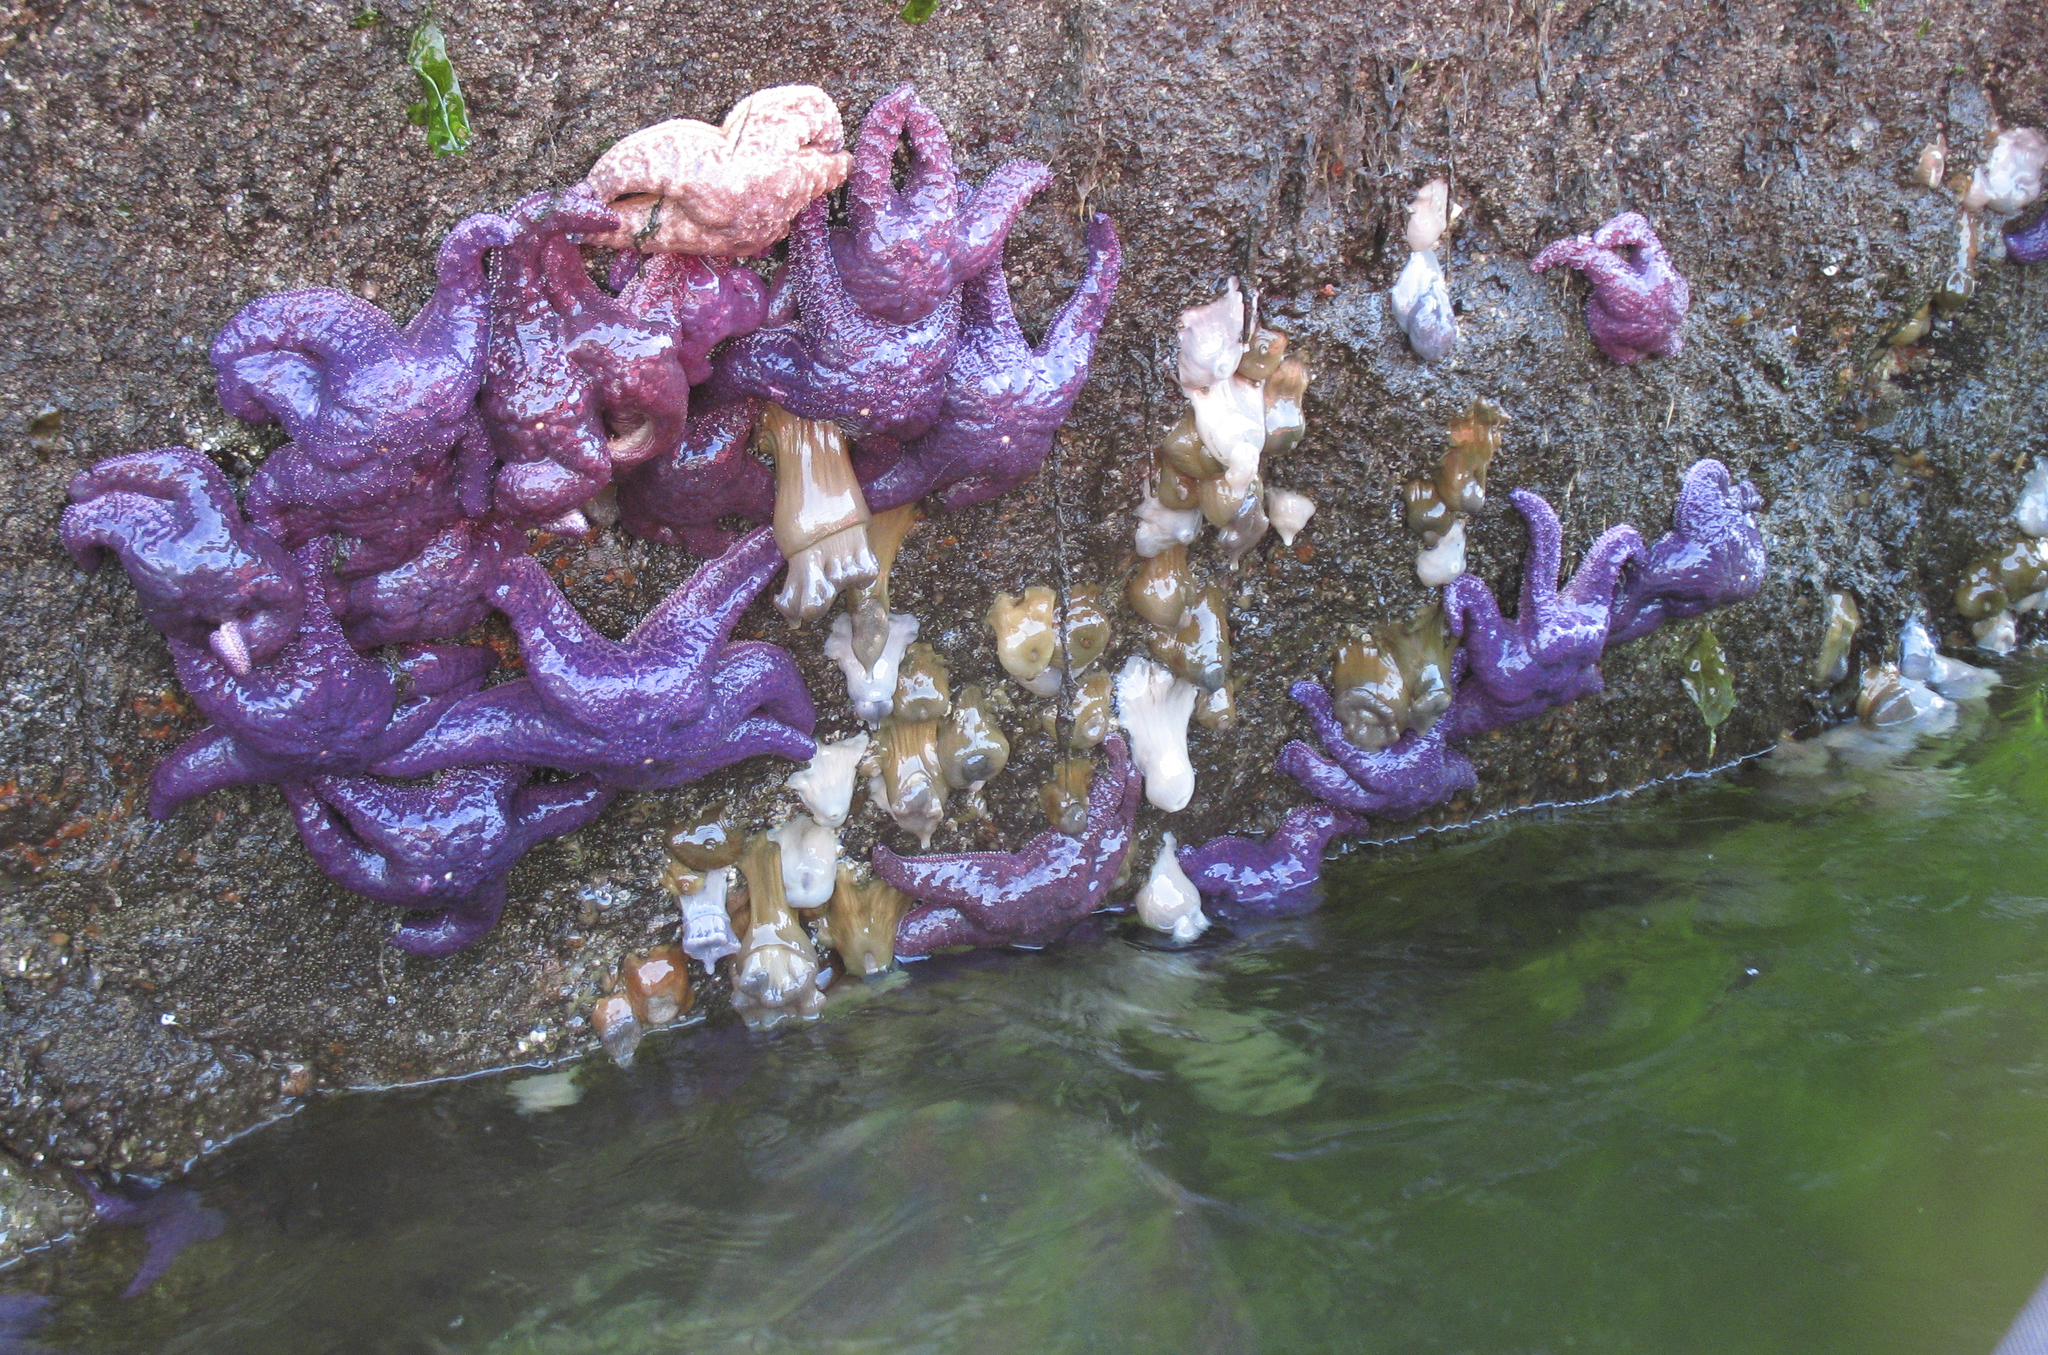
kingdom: Animalia
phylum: Echinodermata
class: Asteroidea
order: Forcipulatida
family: Asteriidae
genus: Pisaster
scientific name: Pisaster ochraceus
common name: Ochre stars
